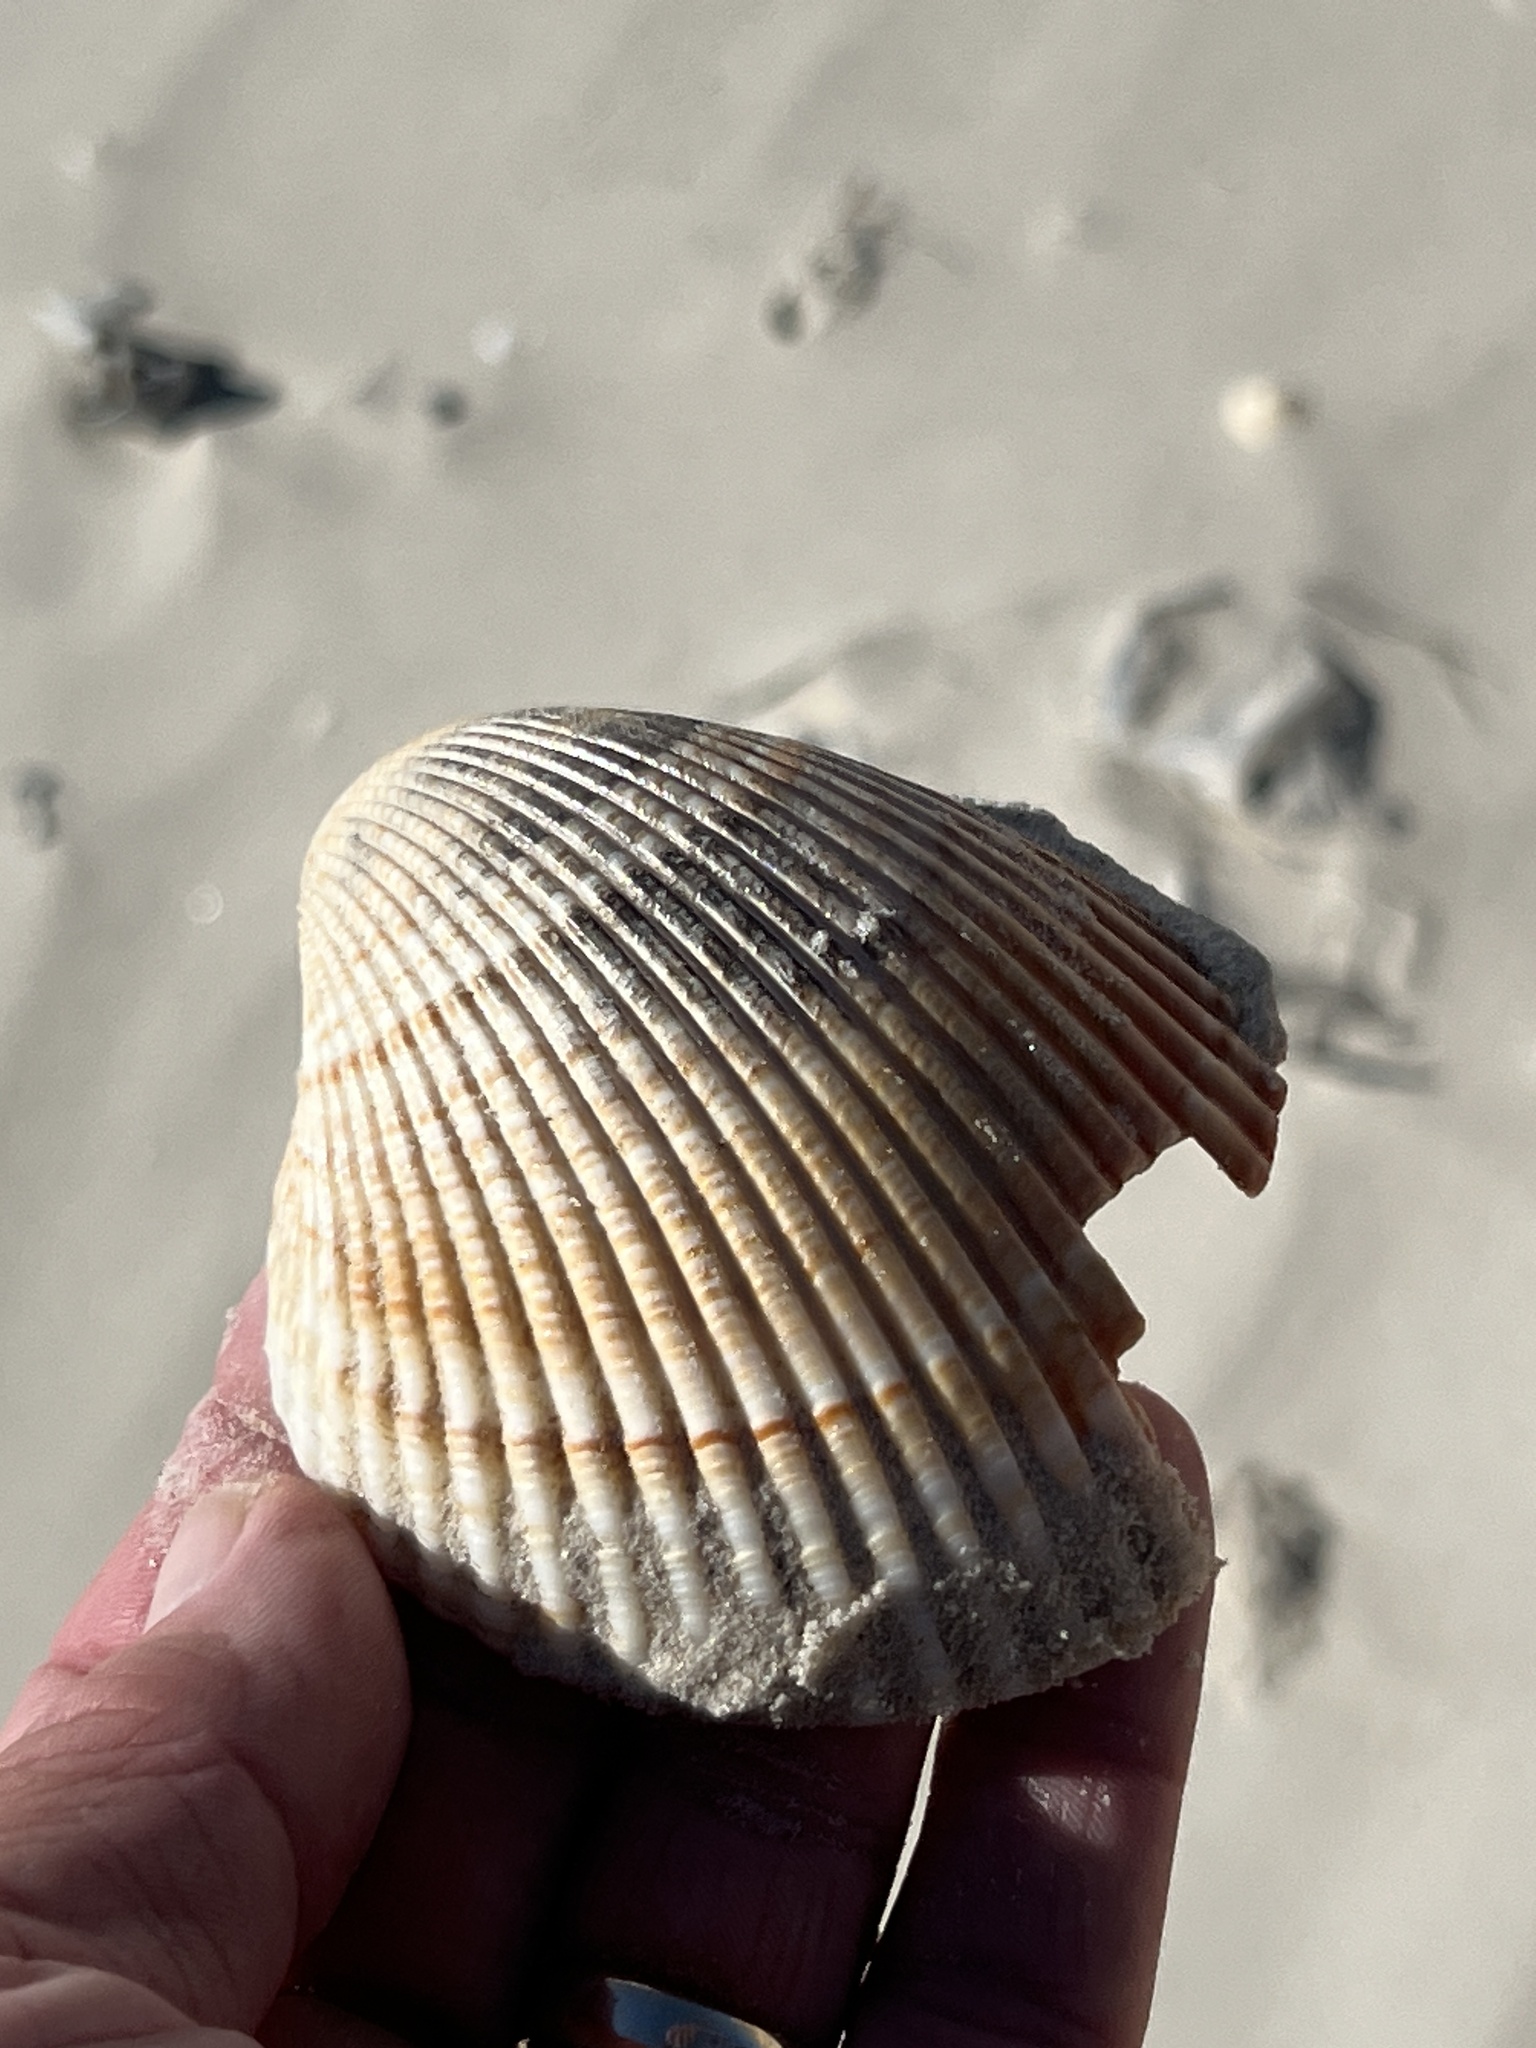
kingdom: Animalia
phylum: Mollusca
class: Bivalvia
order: Cardiida
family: Cardiidae
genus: Dinocardium
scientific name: Dinocardium robustum
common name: Atlantic giant cockle
